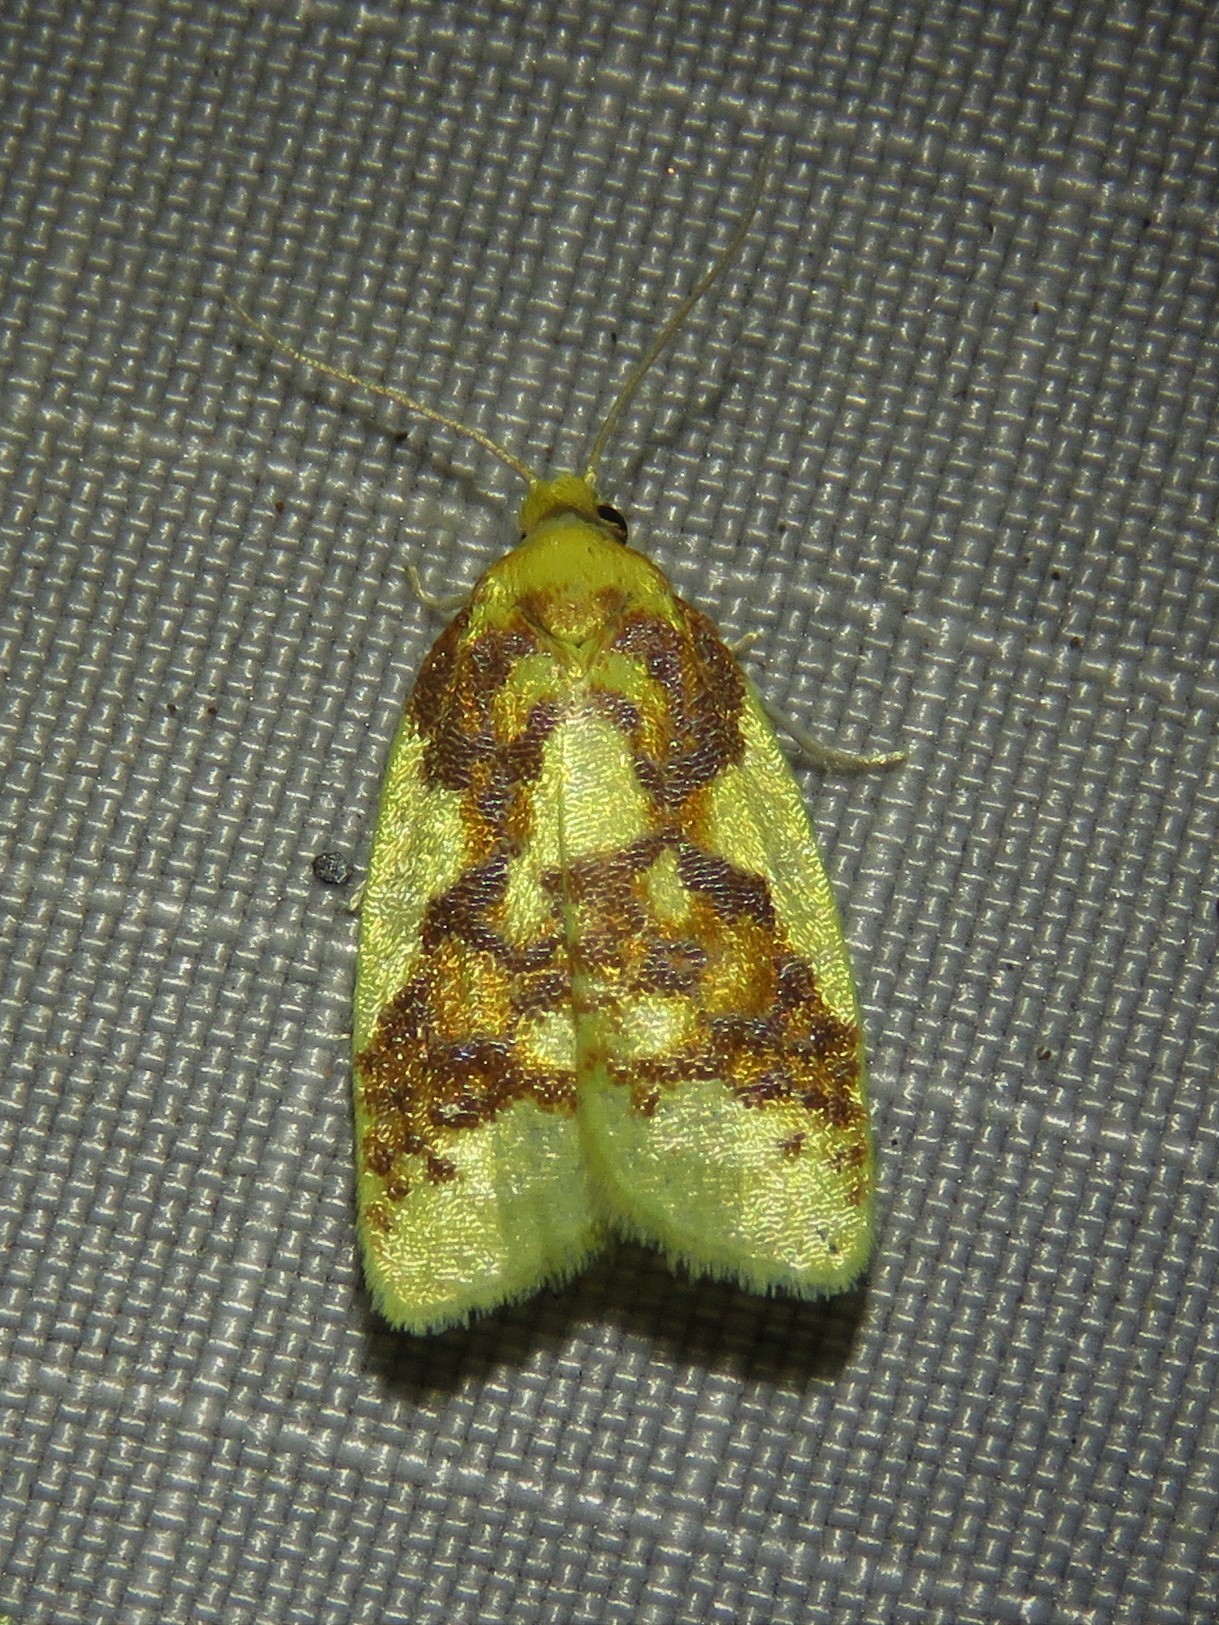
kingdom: Animalia
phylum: Arthropoda
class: Insecta
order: Lepidoptera
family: Tortricidae
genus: Sparganothis
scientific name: Sparganothis pulcherrimana
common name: Beautiful sparganothis
